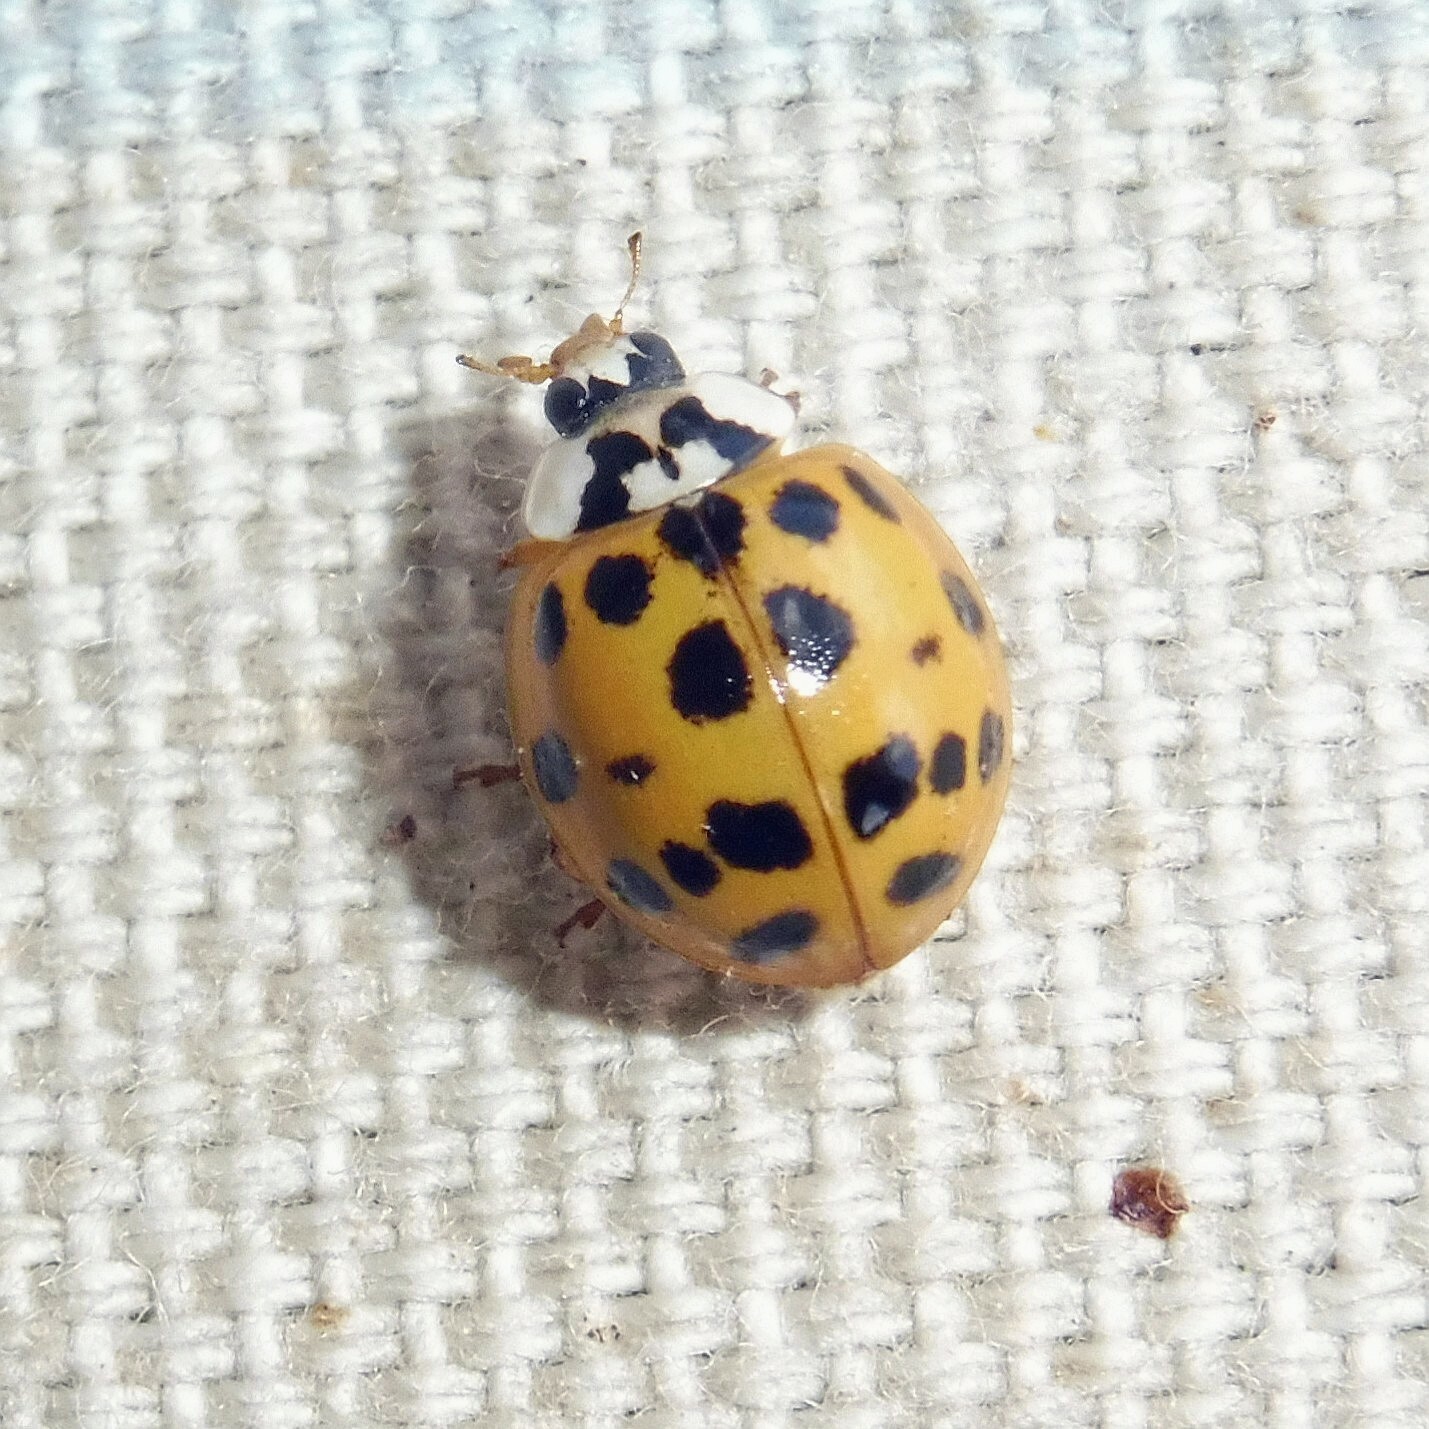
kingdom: Animalia
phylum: Arthropoda
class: Insecta
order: Coleoptera
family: Coccinellidae
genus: Harmonia
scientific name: Harmonia axyridis
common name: Harlequin ladybird
